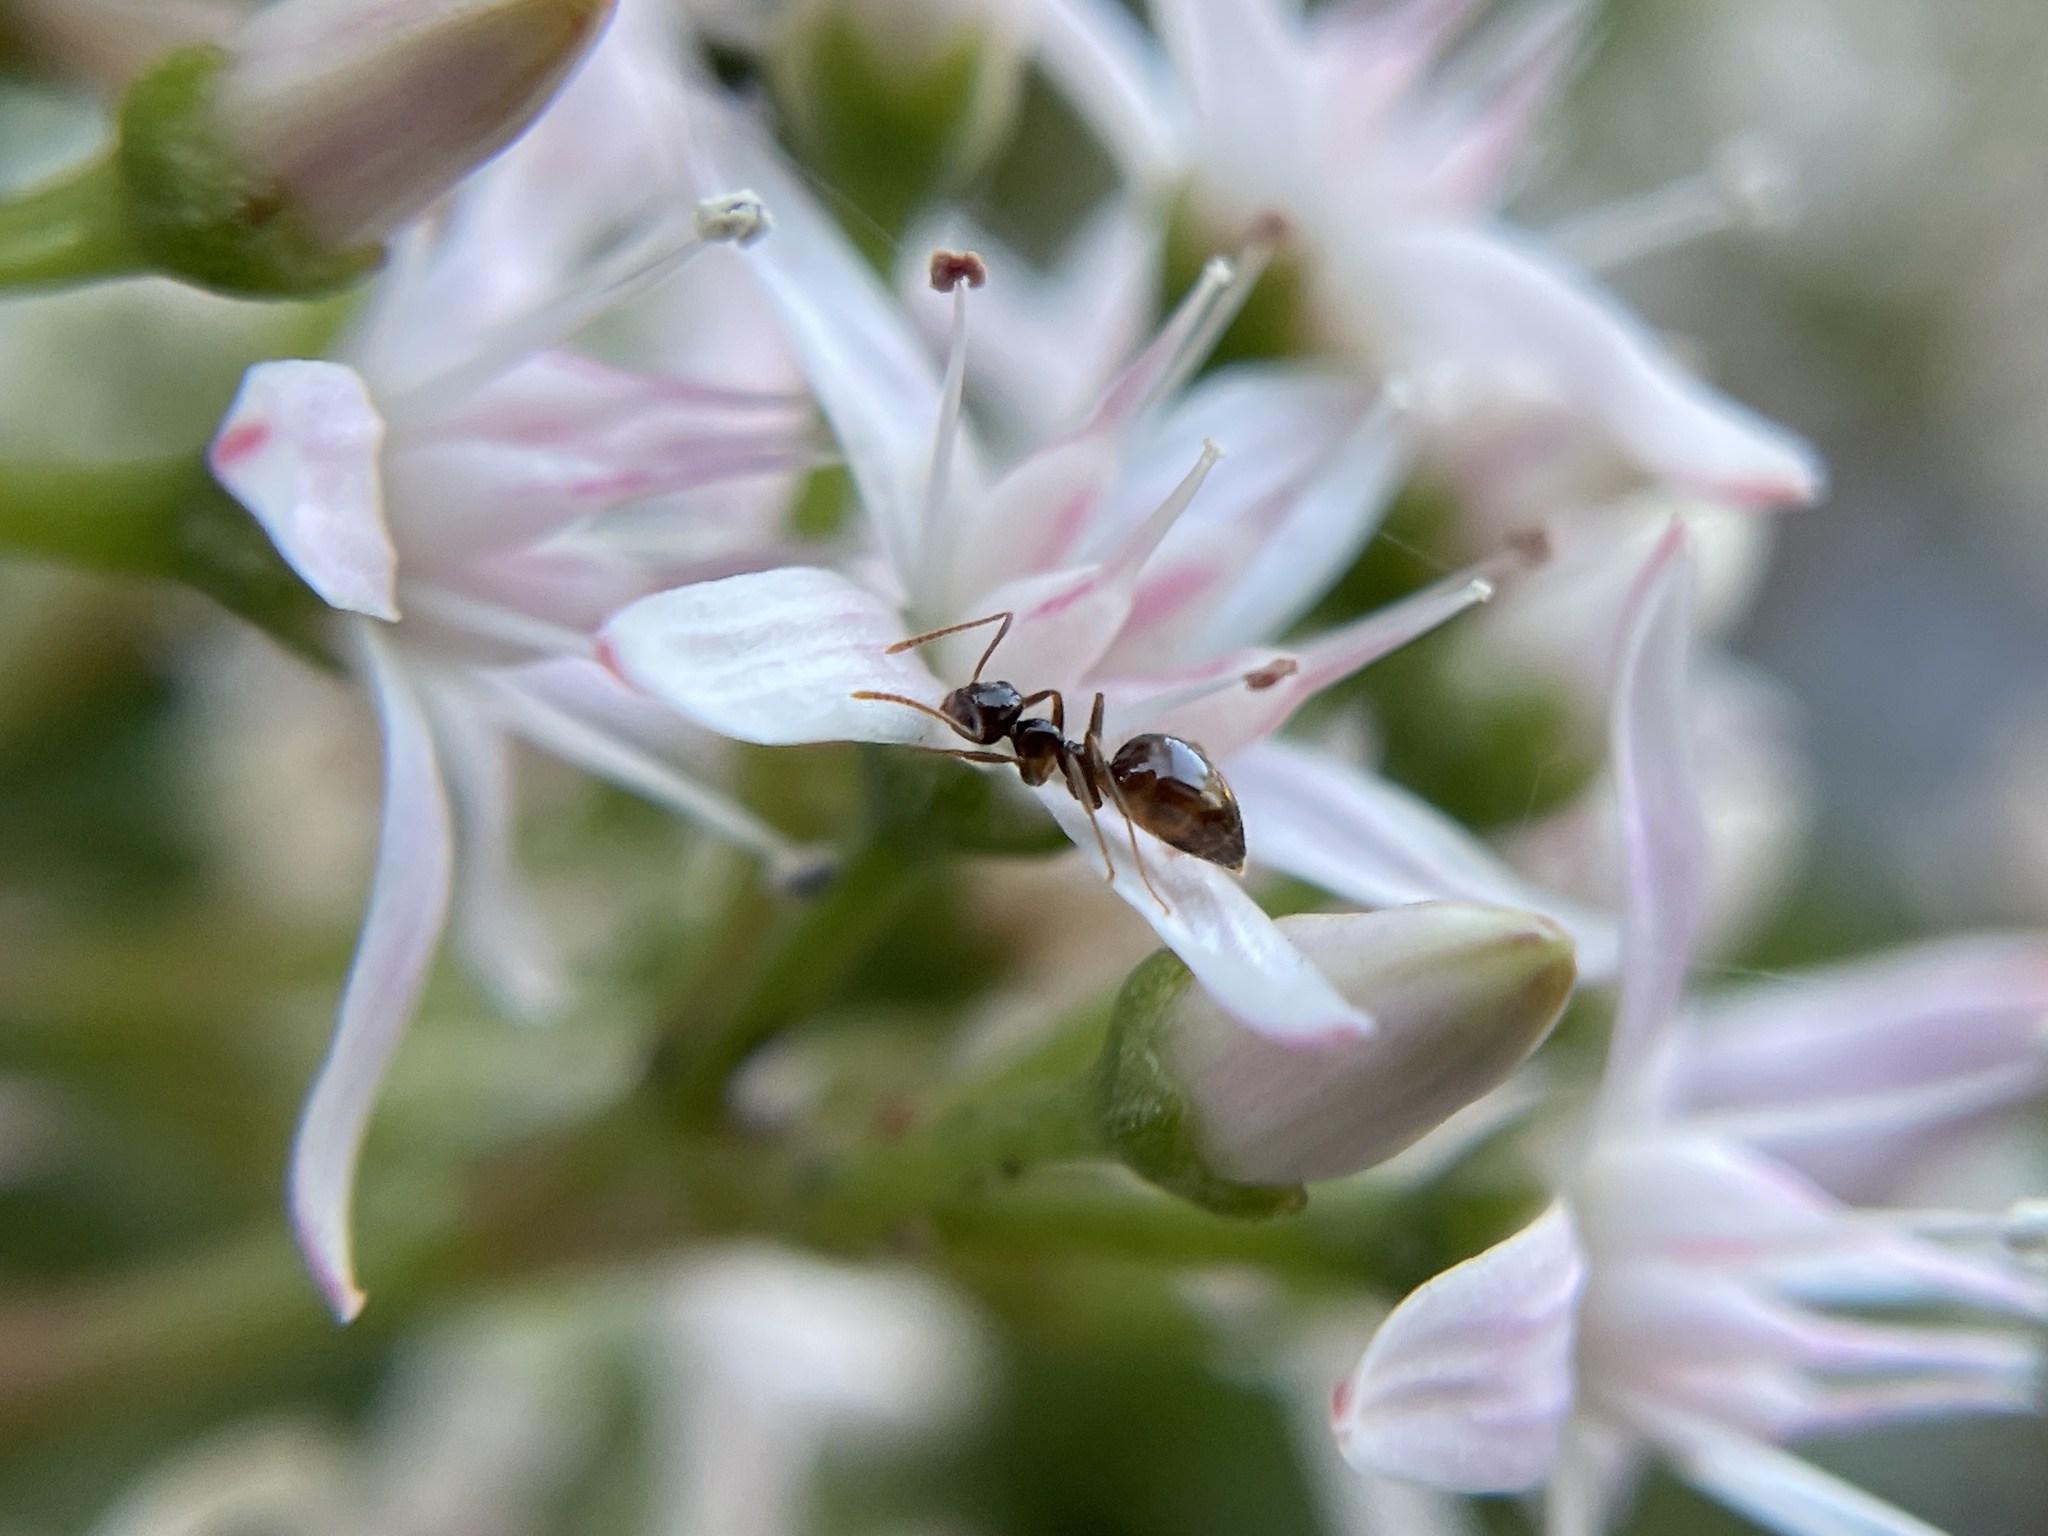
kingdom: Animalia
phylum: Arthropoda
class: Insecta
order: Hymenoptera
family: Formicidae
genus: Prenolepis
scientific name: Prenolepis imparis
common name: Small honey ant
